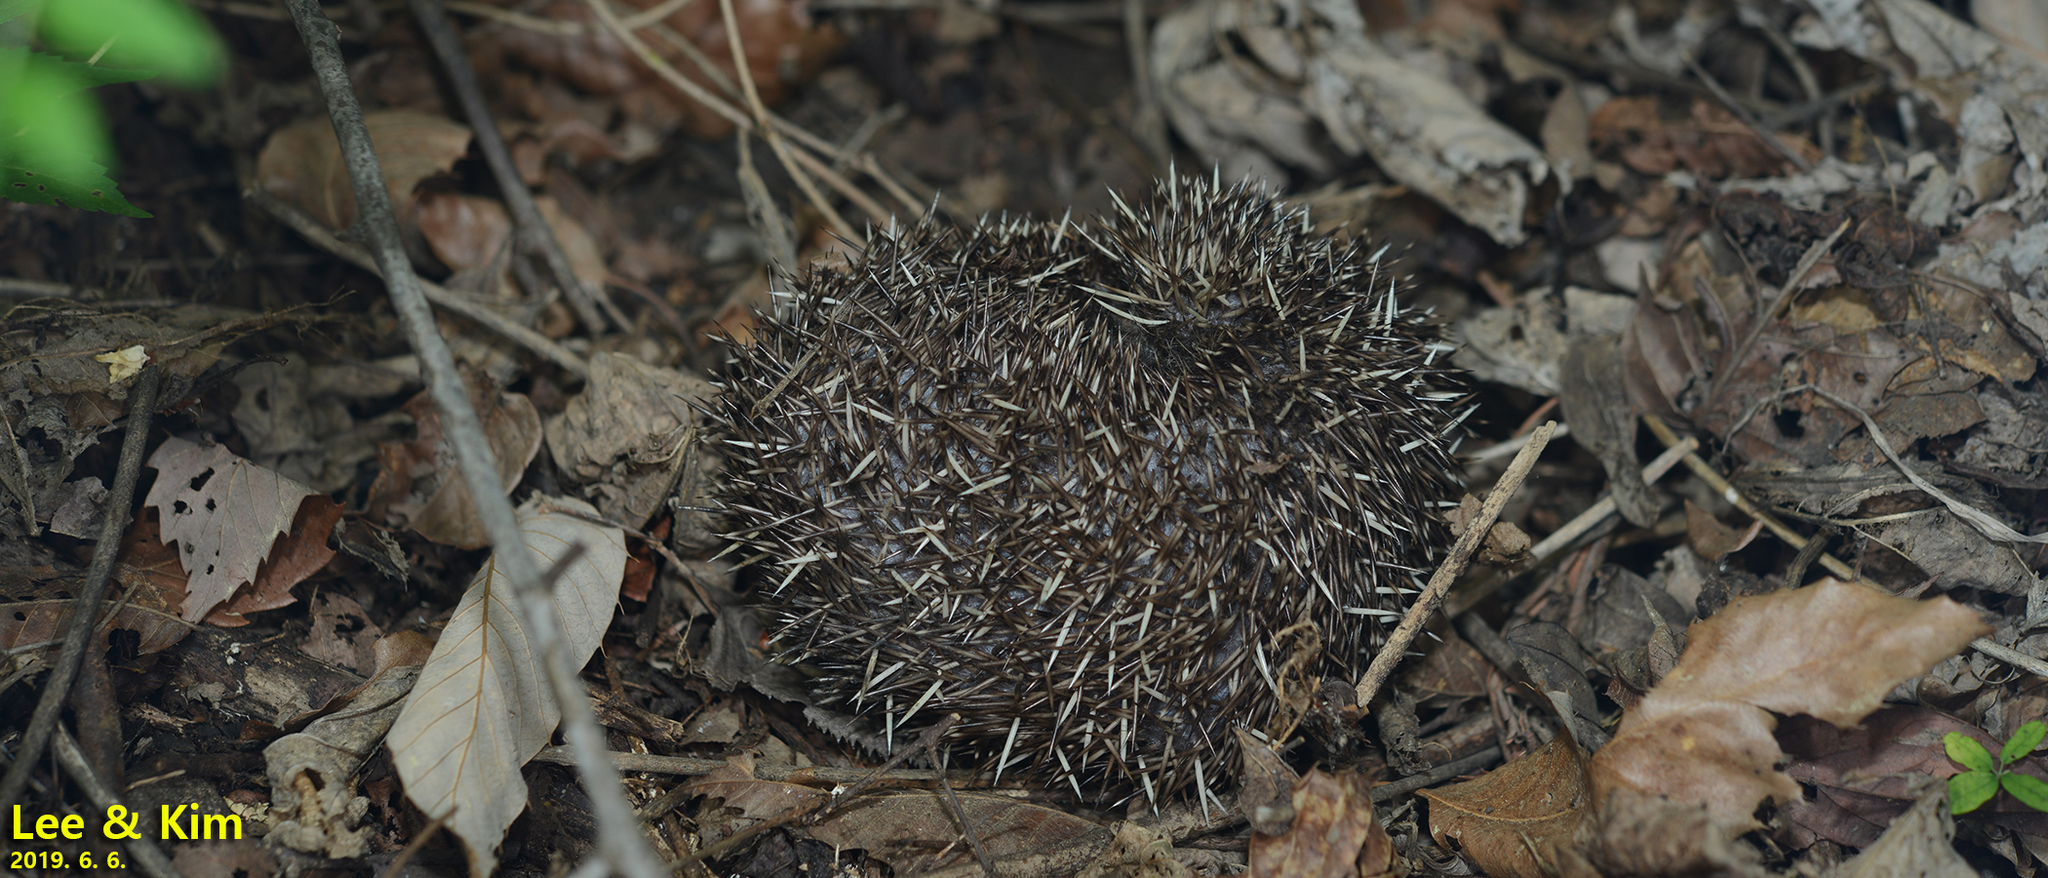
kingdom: Animalia
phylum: Chordata
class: Mammalia
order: Erinaceomorpha
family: Erinaceidae
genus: Erinaceus
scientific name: Erinaceus amurensis
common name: Amur hedgehog
